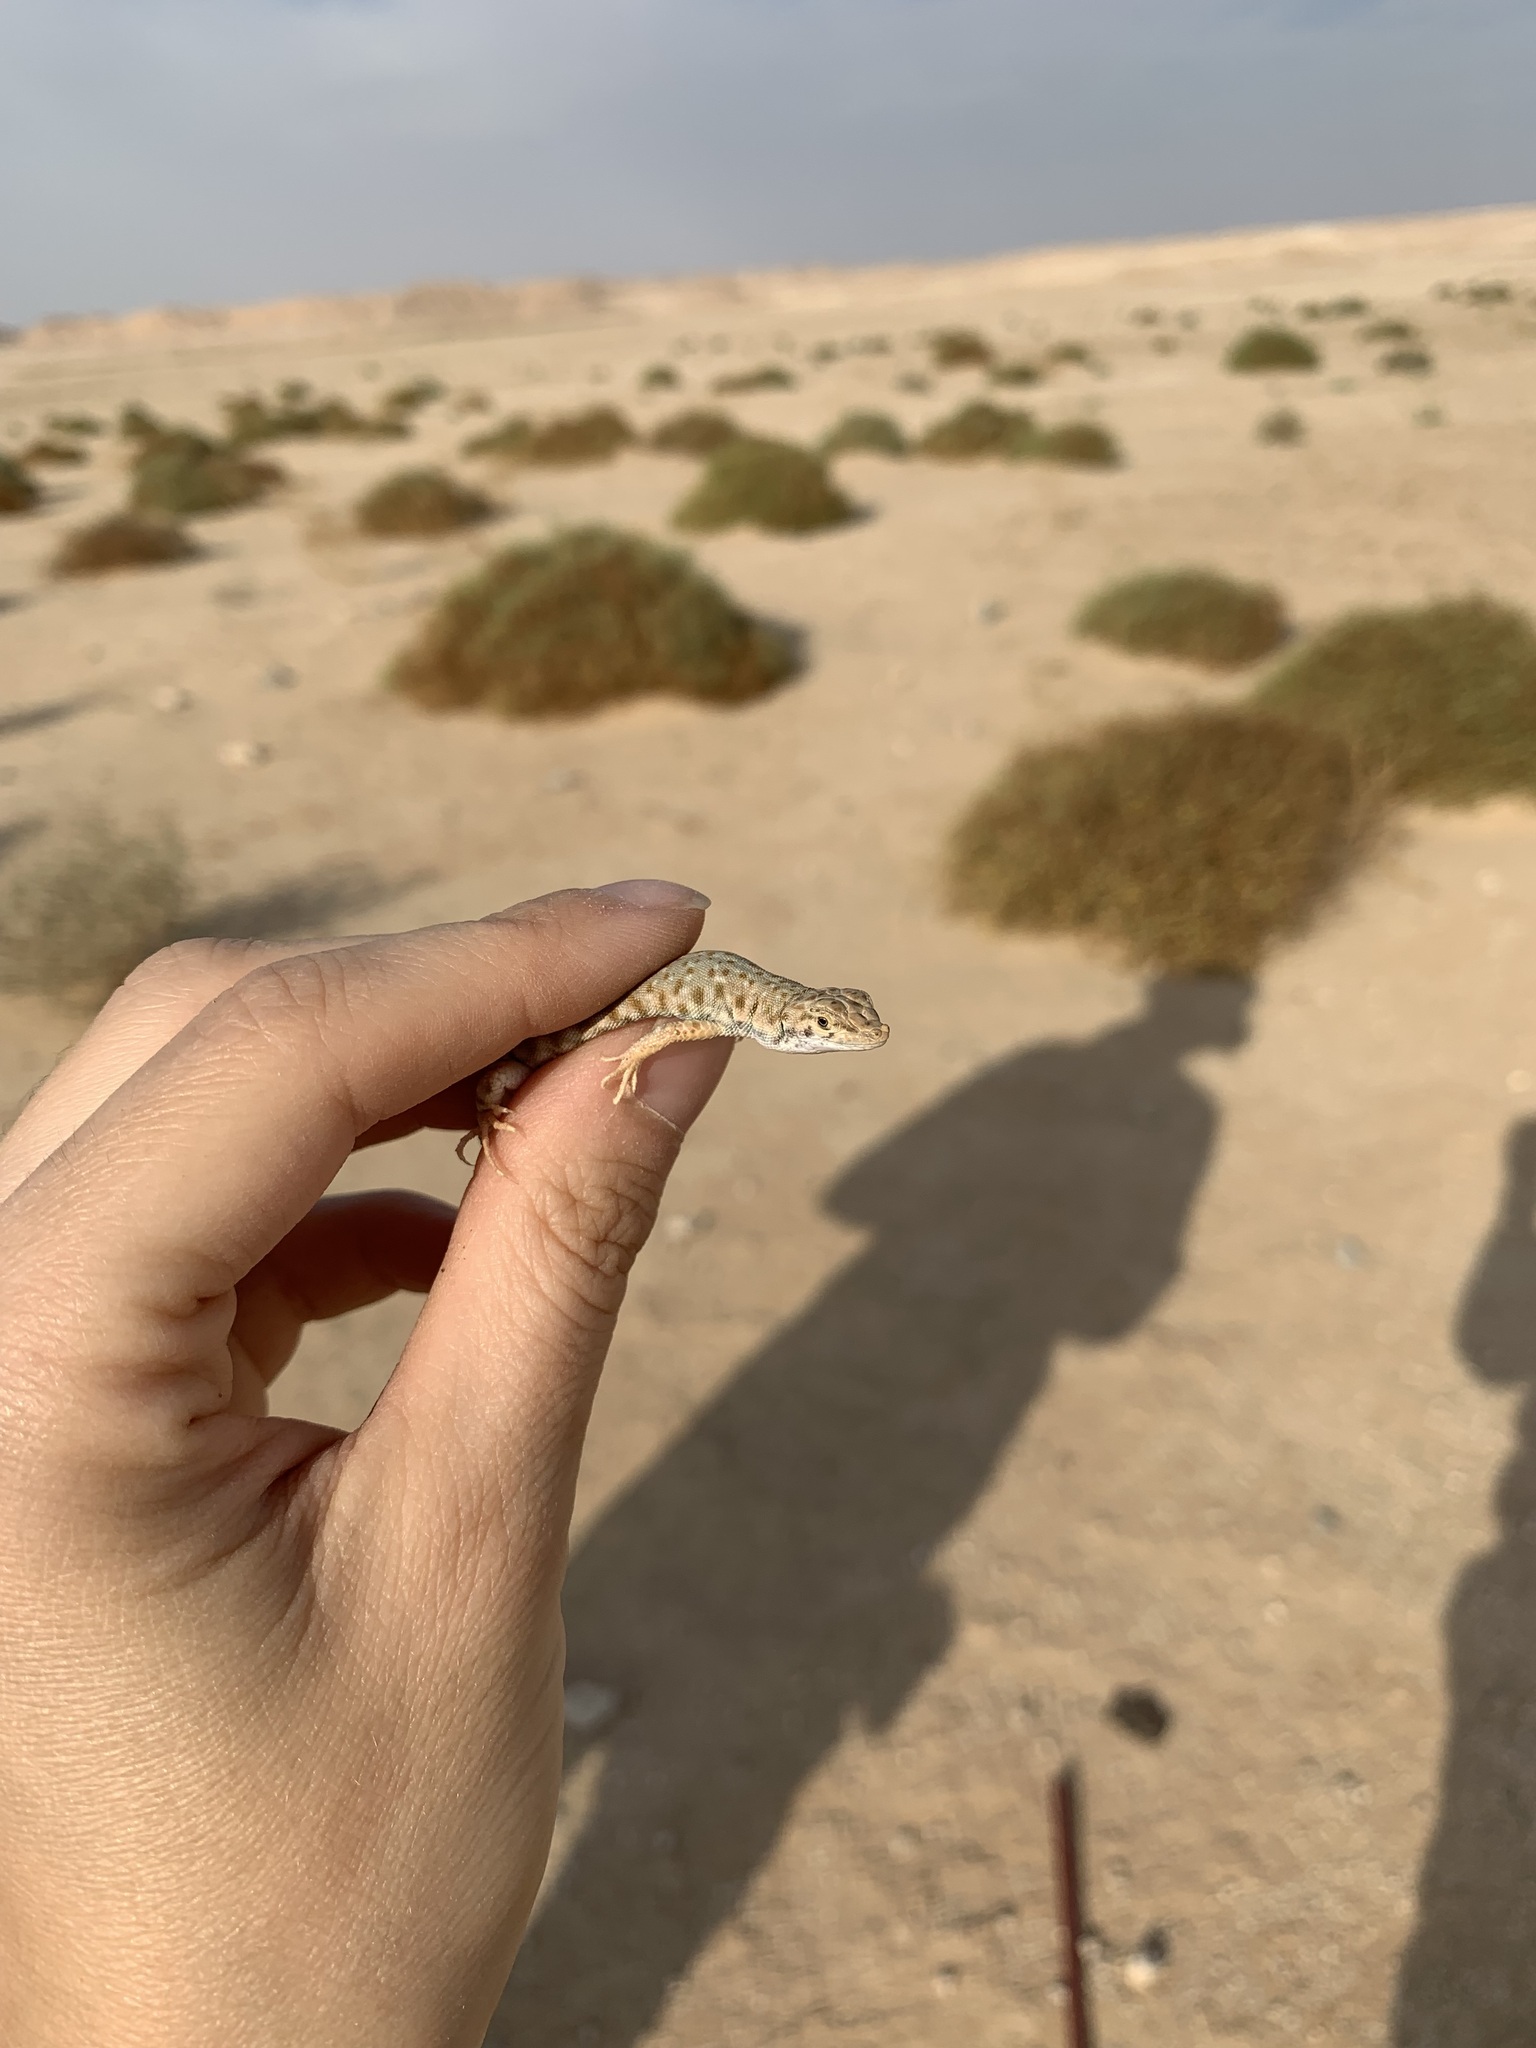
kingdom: Animalia
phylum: Chordata
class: Squamata
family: Lacertidae
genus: Mesalina
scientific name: Mesalina brevirostris
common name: Blanford's short-nosed desert lizard
